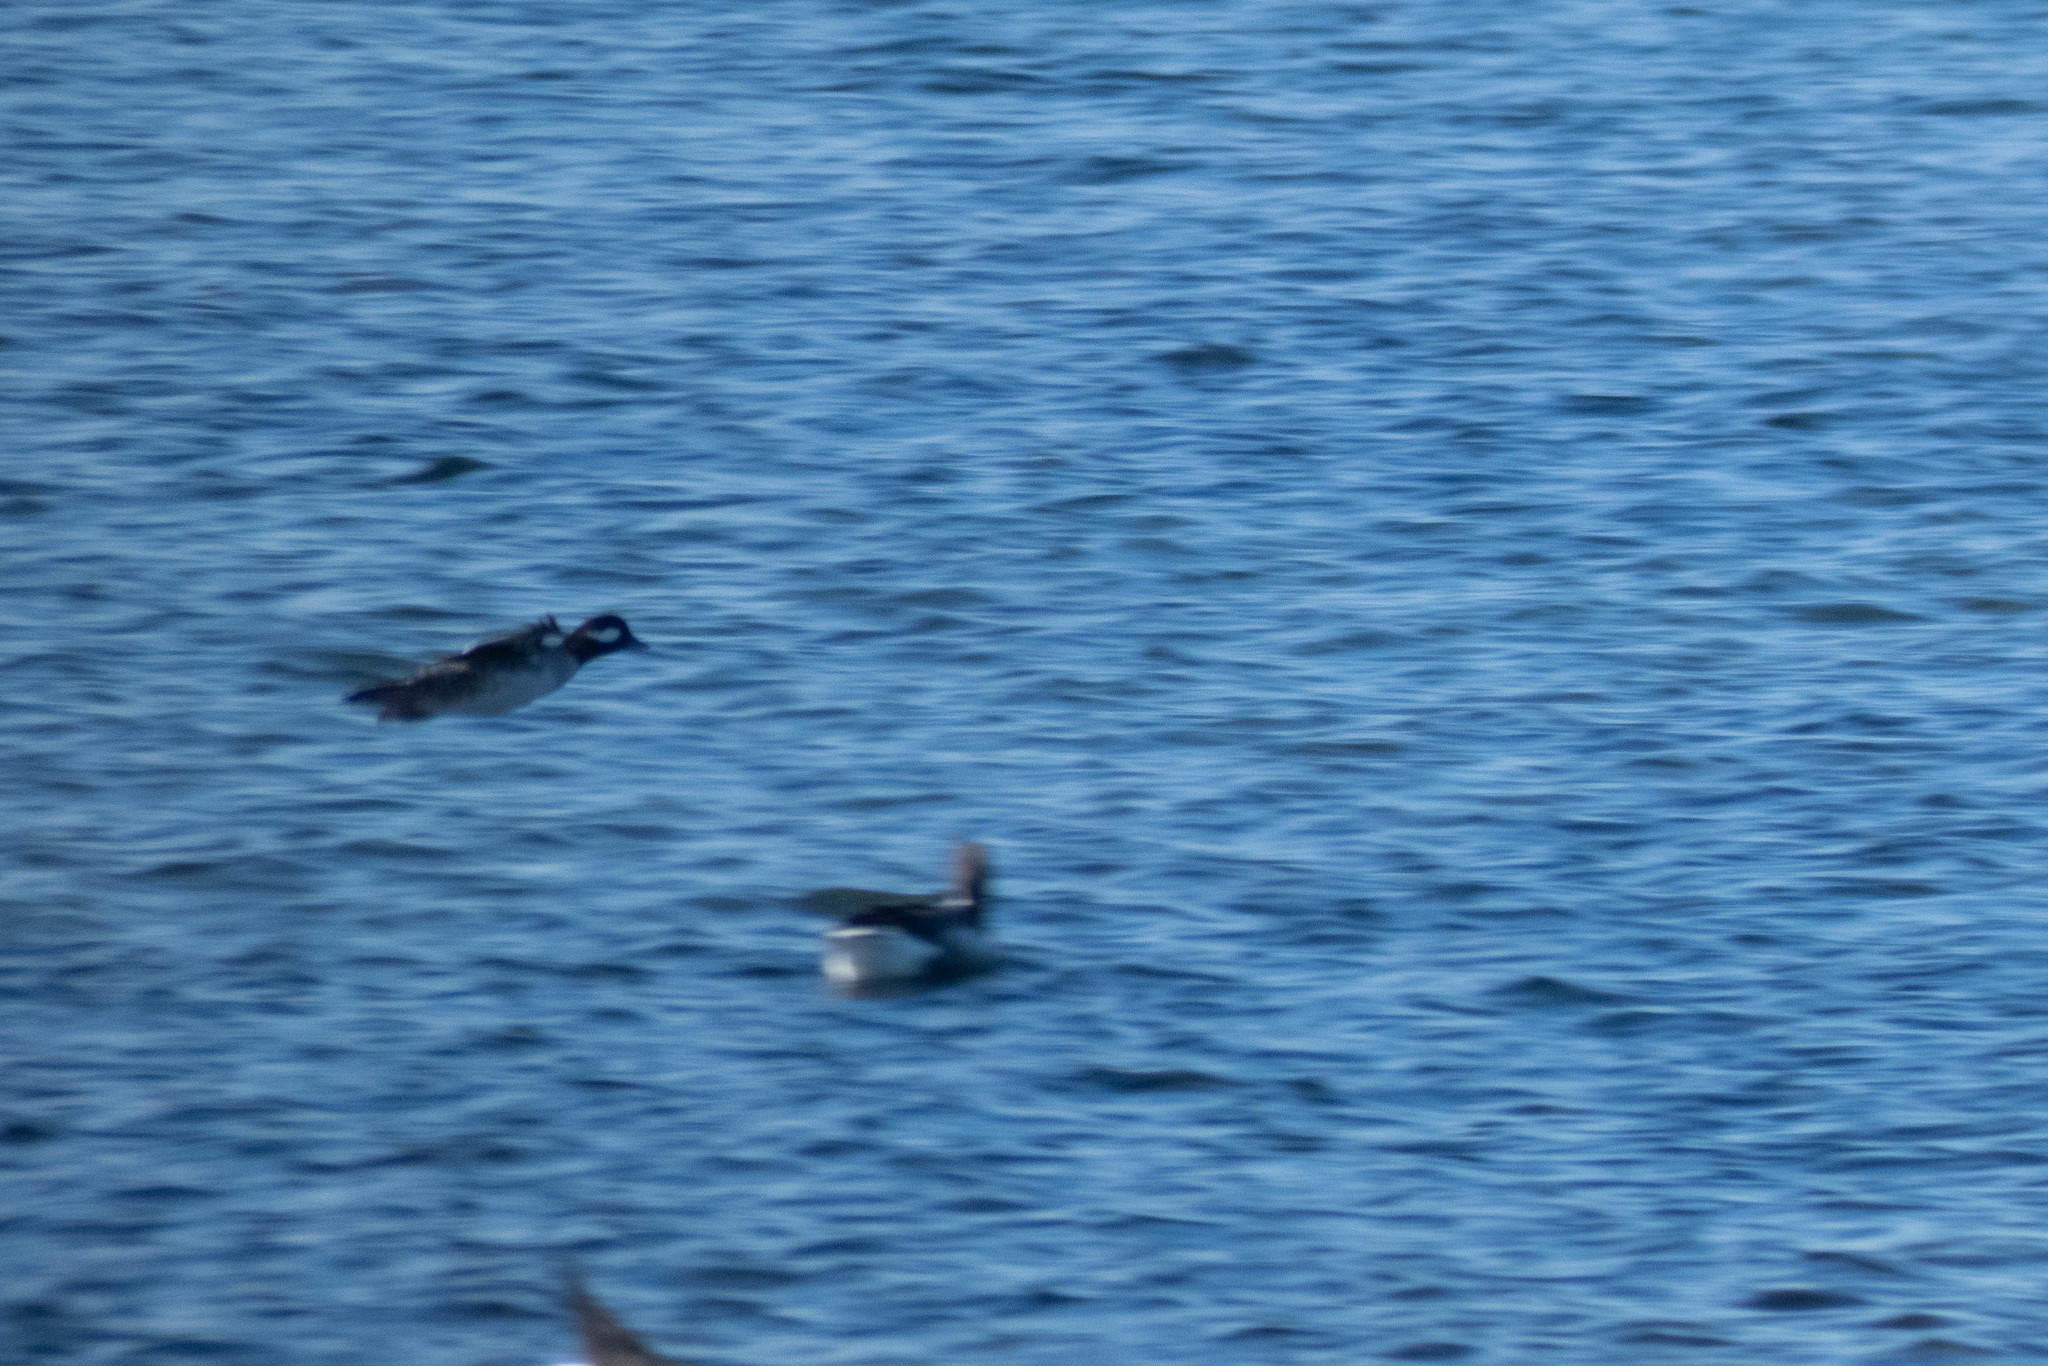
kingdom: Animalia
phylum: Chordata
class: Aves
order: Anseriformes
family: Anatidae
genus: Bucephala
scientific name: Bucephala albeola
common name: Bufflehead
